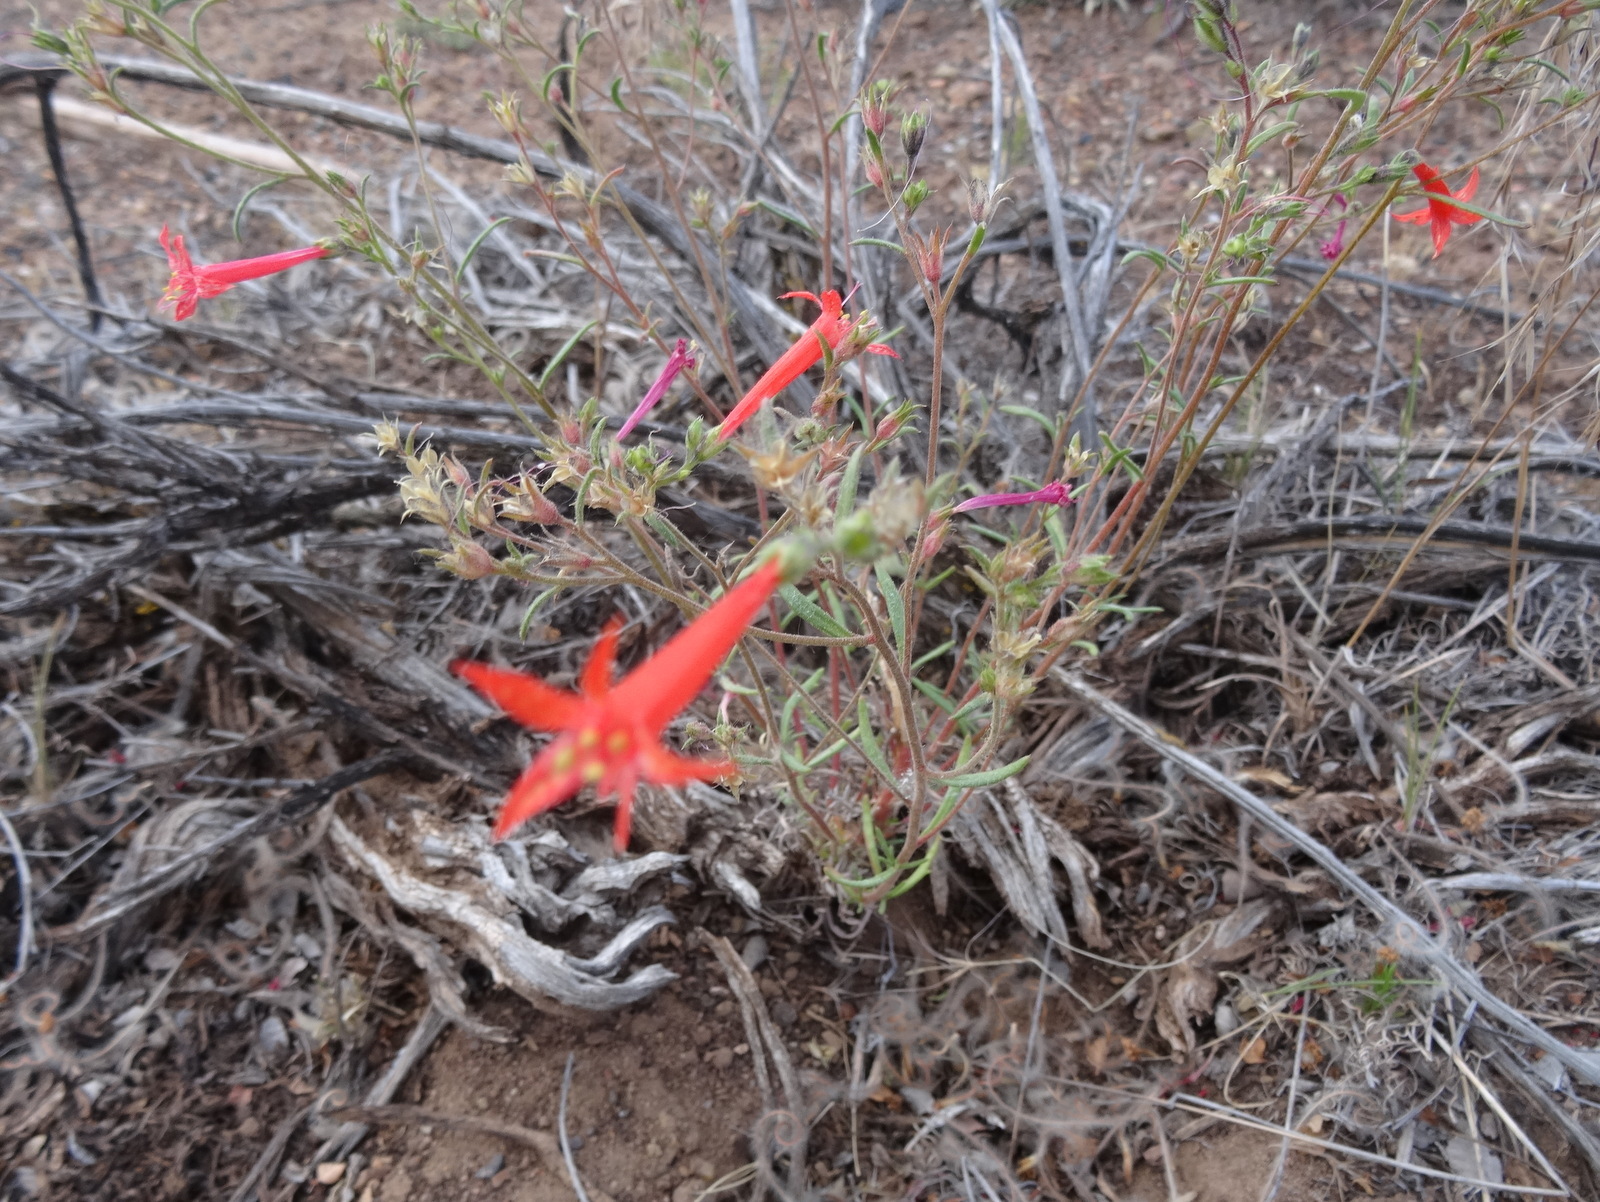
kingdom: Plantae
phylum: Tracheophyta
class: Magnoliopsida
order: Ericales
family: Polemoniaceae
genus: Ipomopsis
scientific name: Ipomopsis aggregata
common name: Scarlet gilia
